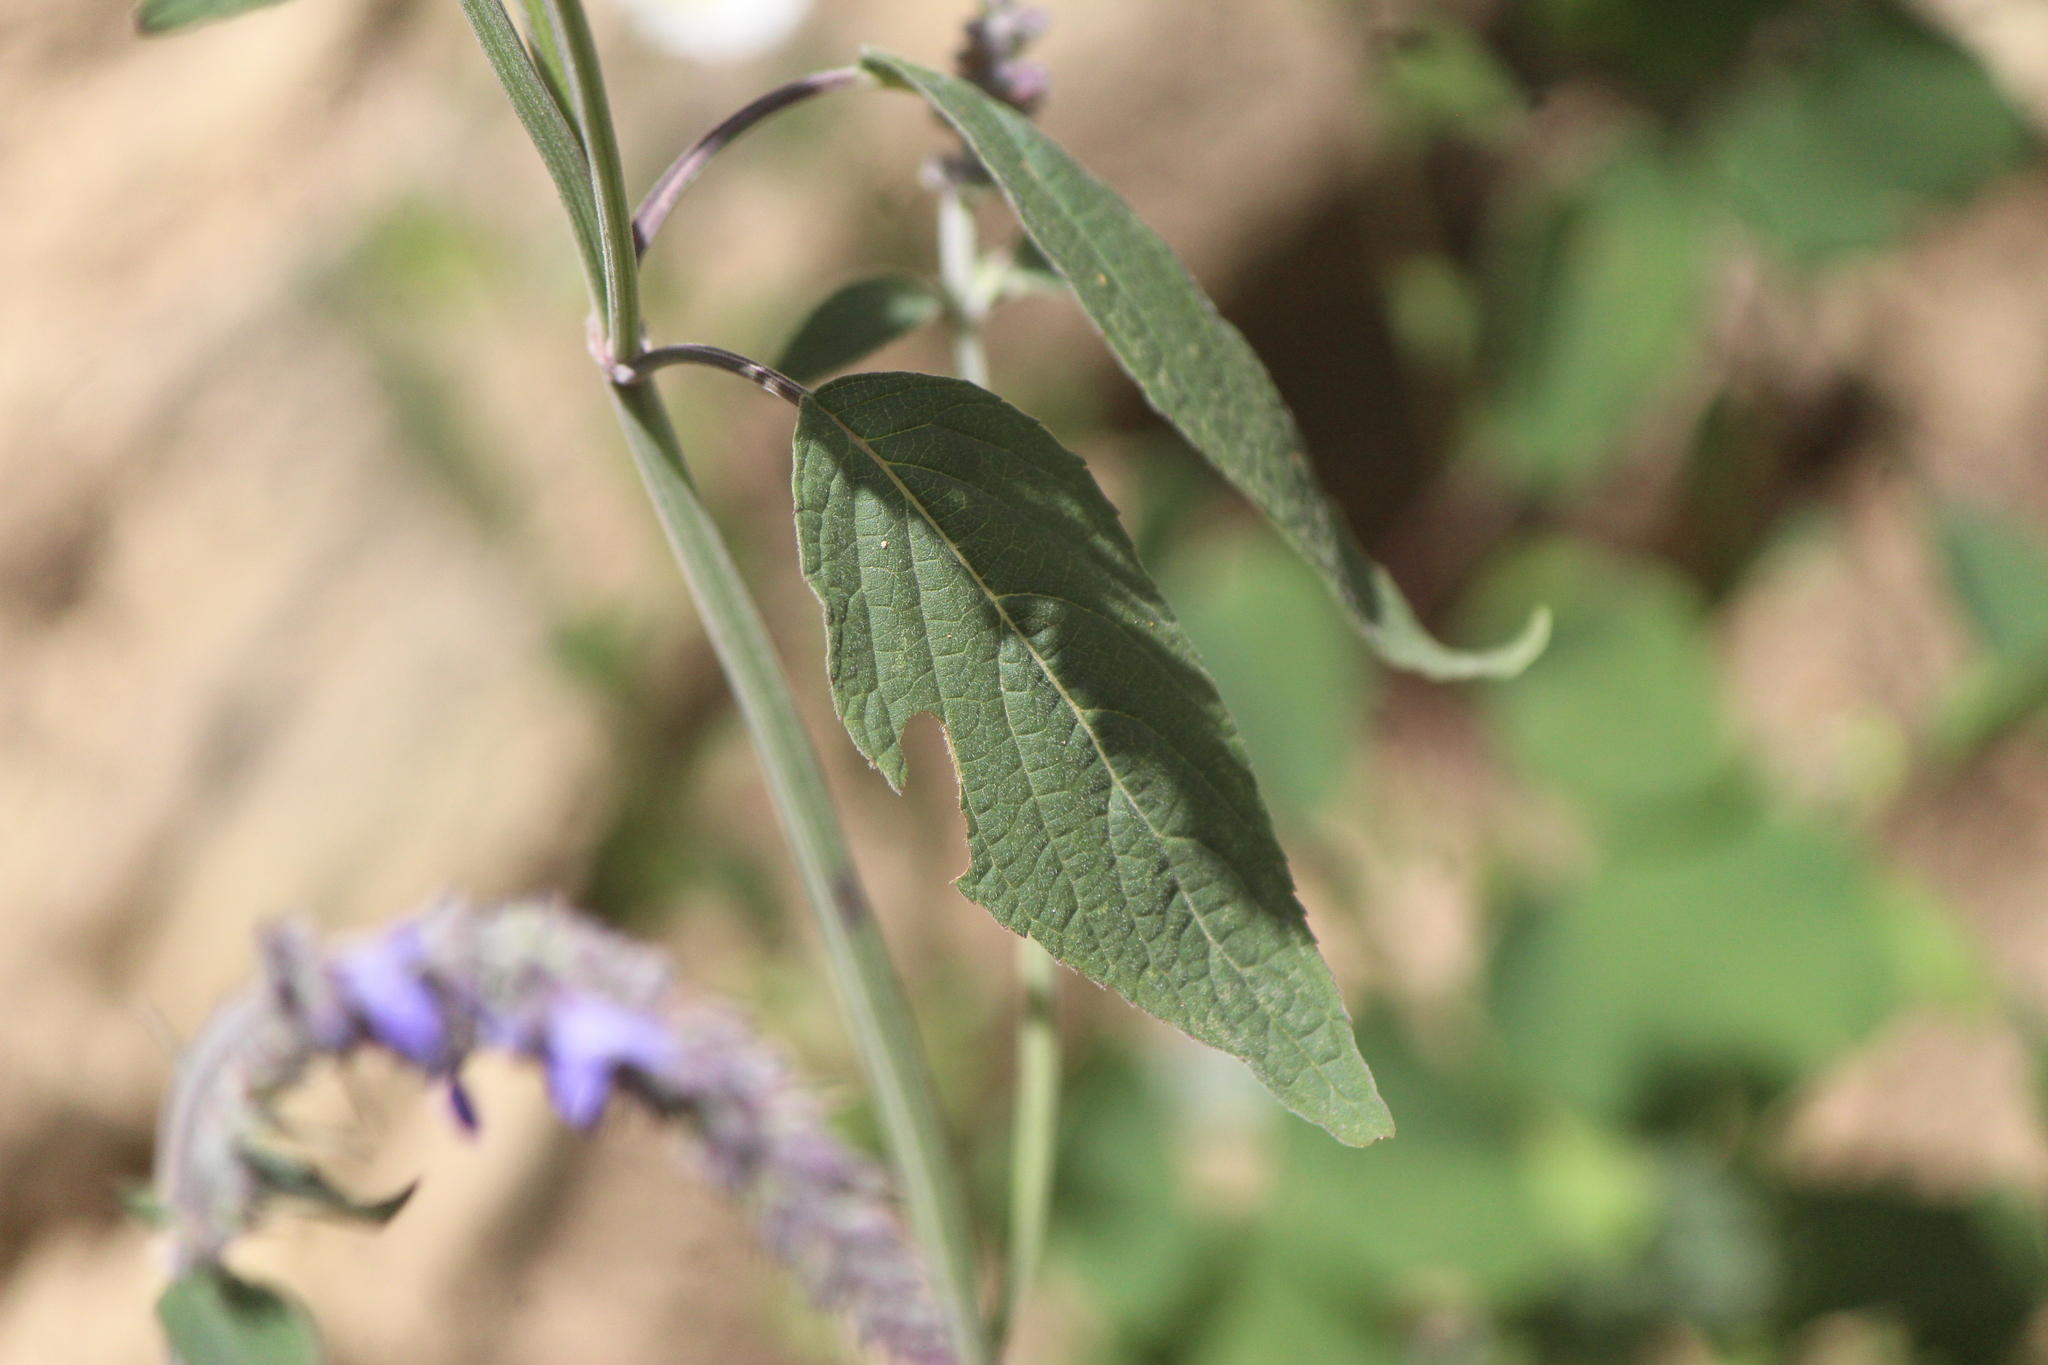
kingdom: Plantae
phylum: Tracheophyta
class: Magnoliopsida
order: Lamiales
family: Lamiaceae
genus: Salvia
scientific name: Salvia polystachia
